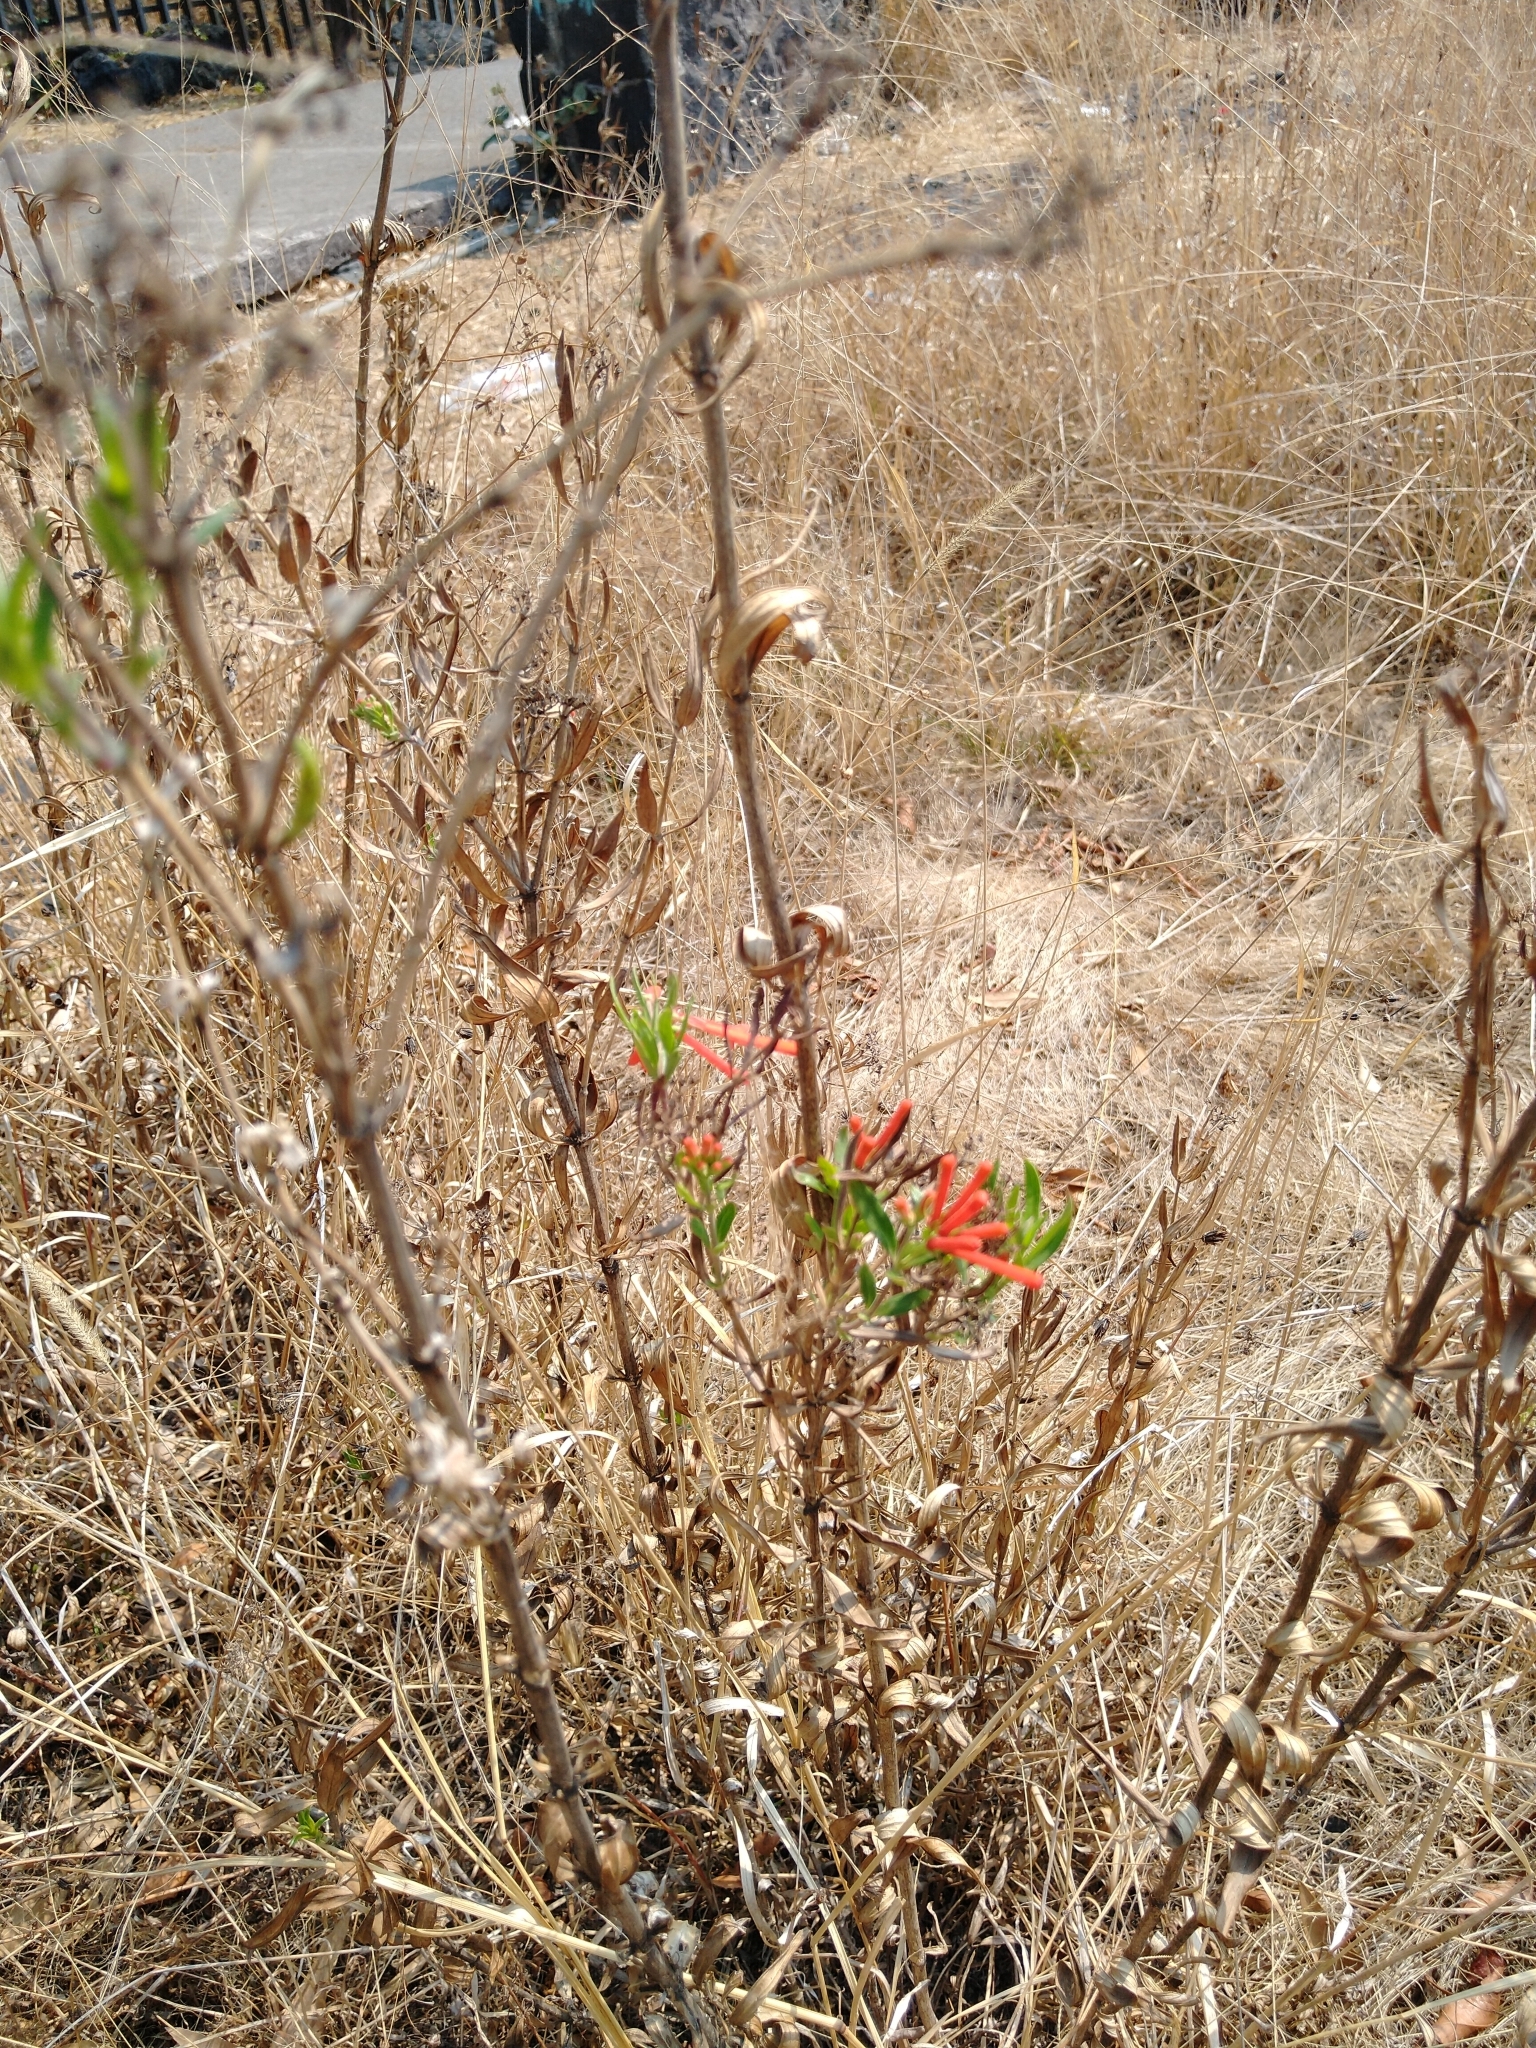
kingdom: Plantae
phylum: Tracheophyta
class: Magnoliopsida
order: Gentianales
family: Rubiaceae
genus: Bouvardia
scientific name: Bouvardia ternifolia
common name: Scarlet bouvardia
